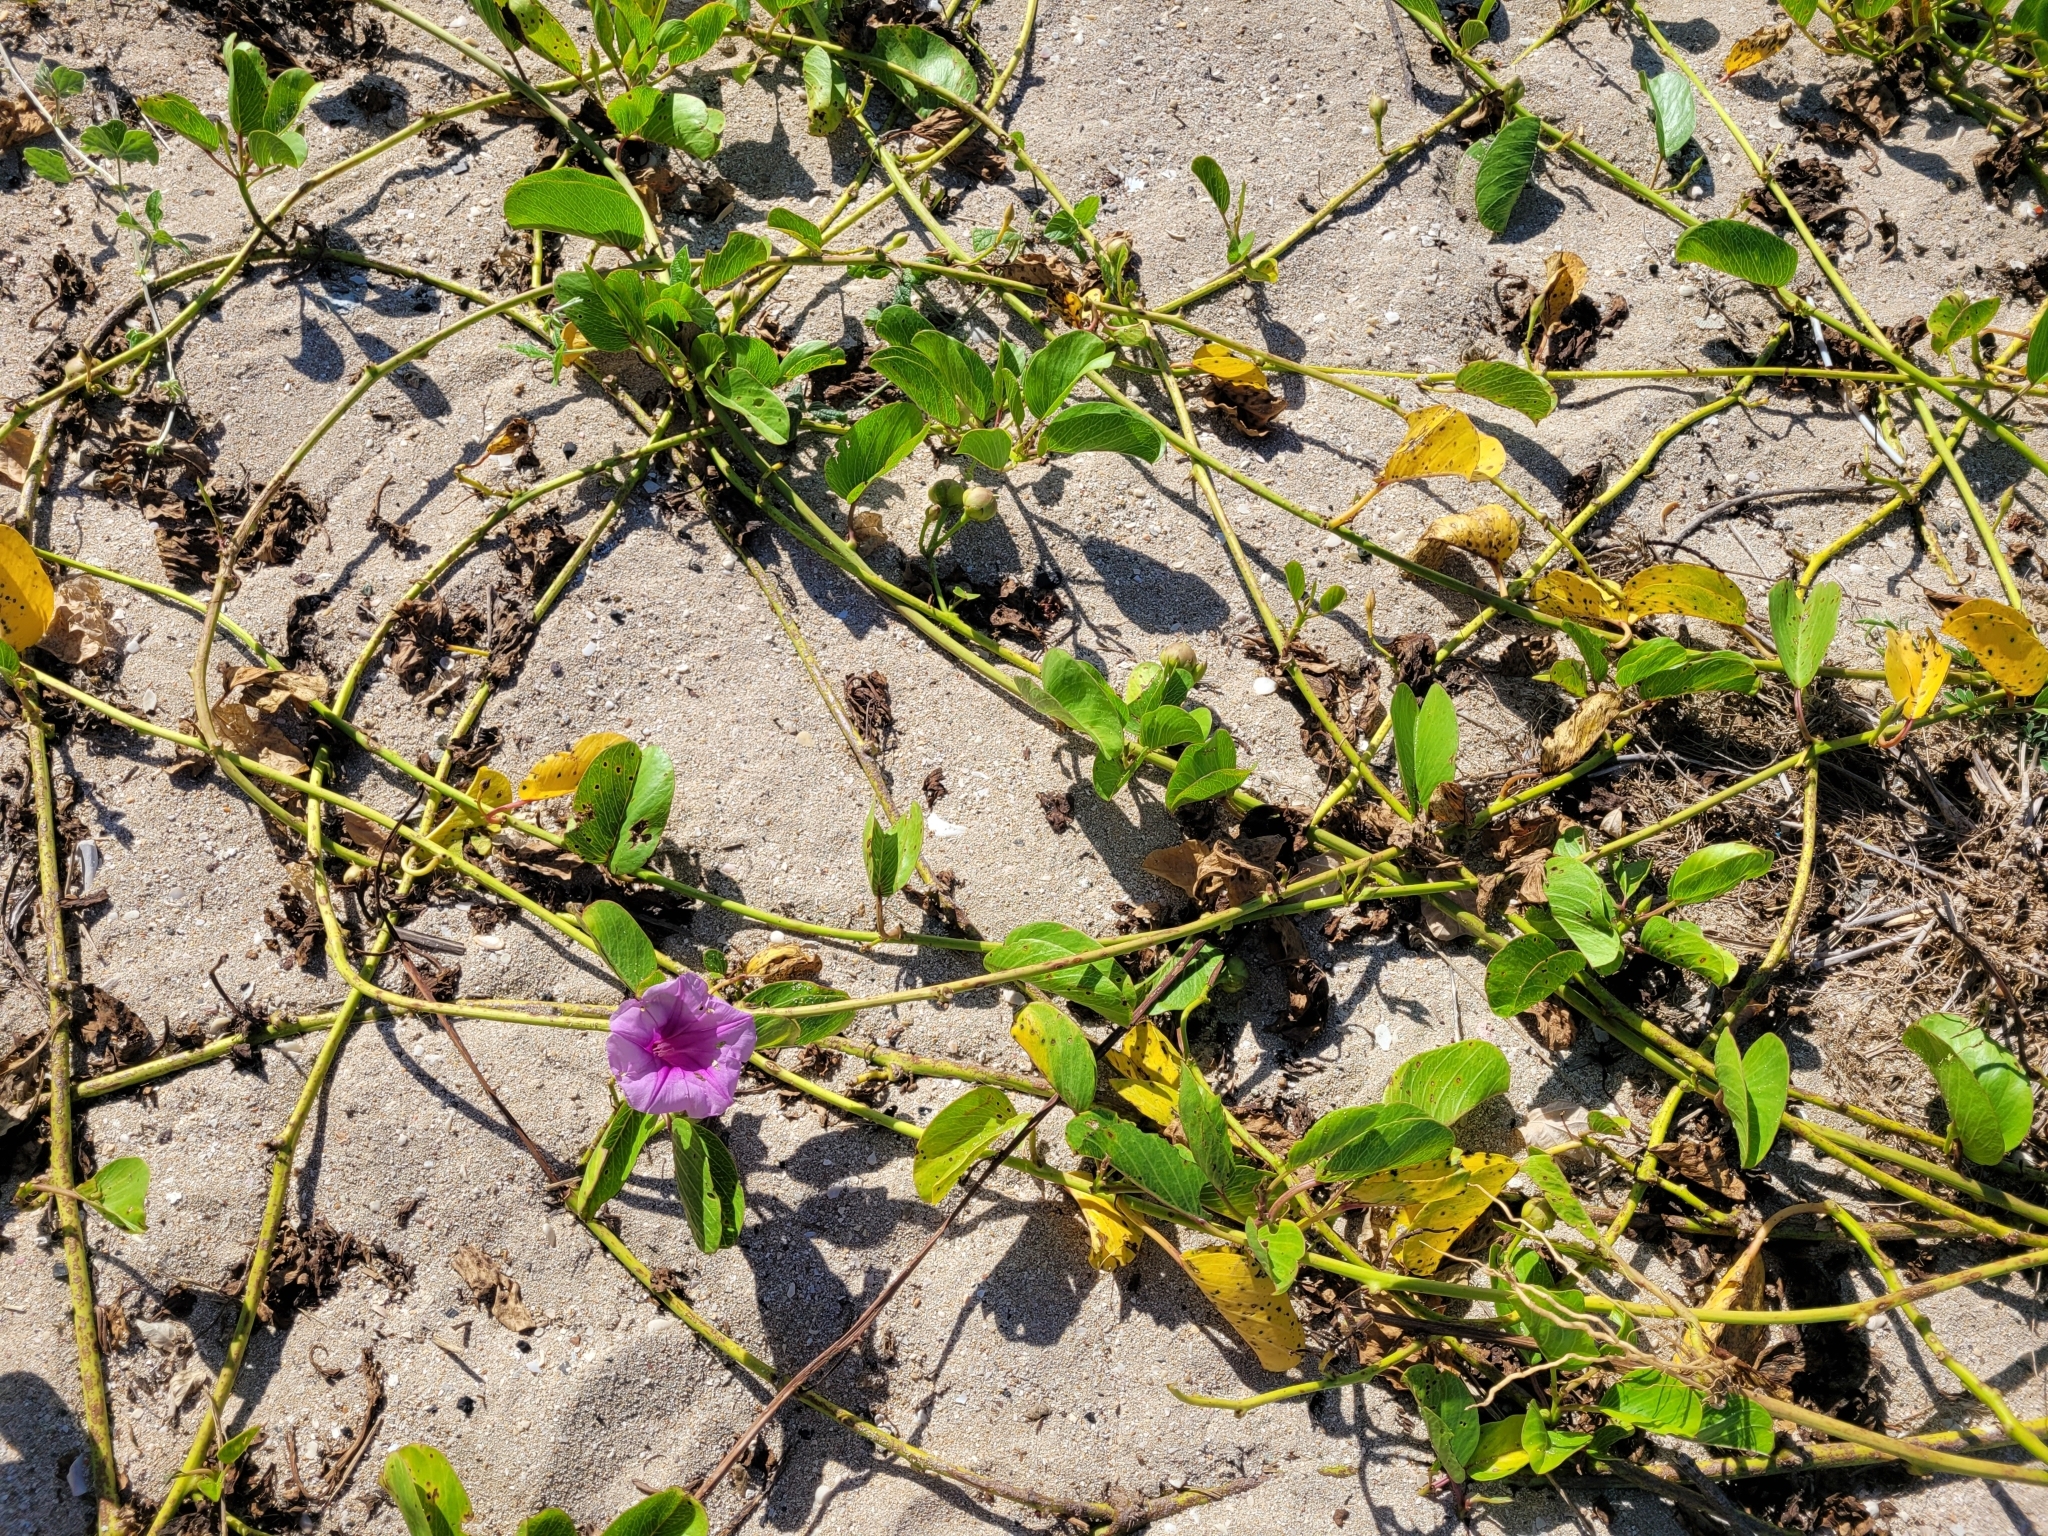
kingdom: Plantae
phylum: Tracheophyta
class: Magnoliopsida
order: Solanales
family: Convolvulaceae
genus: Ipomoea
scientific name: Ipomoea pes-caprae
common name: Beach morning glory
